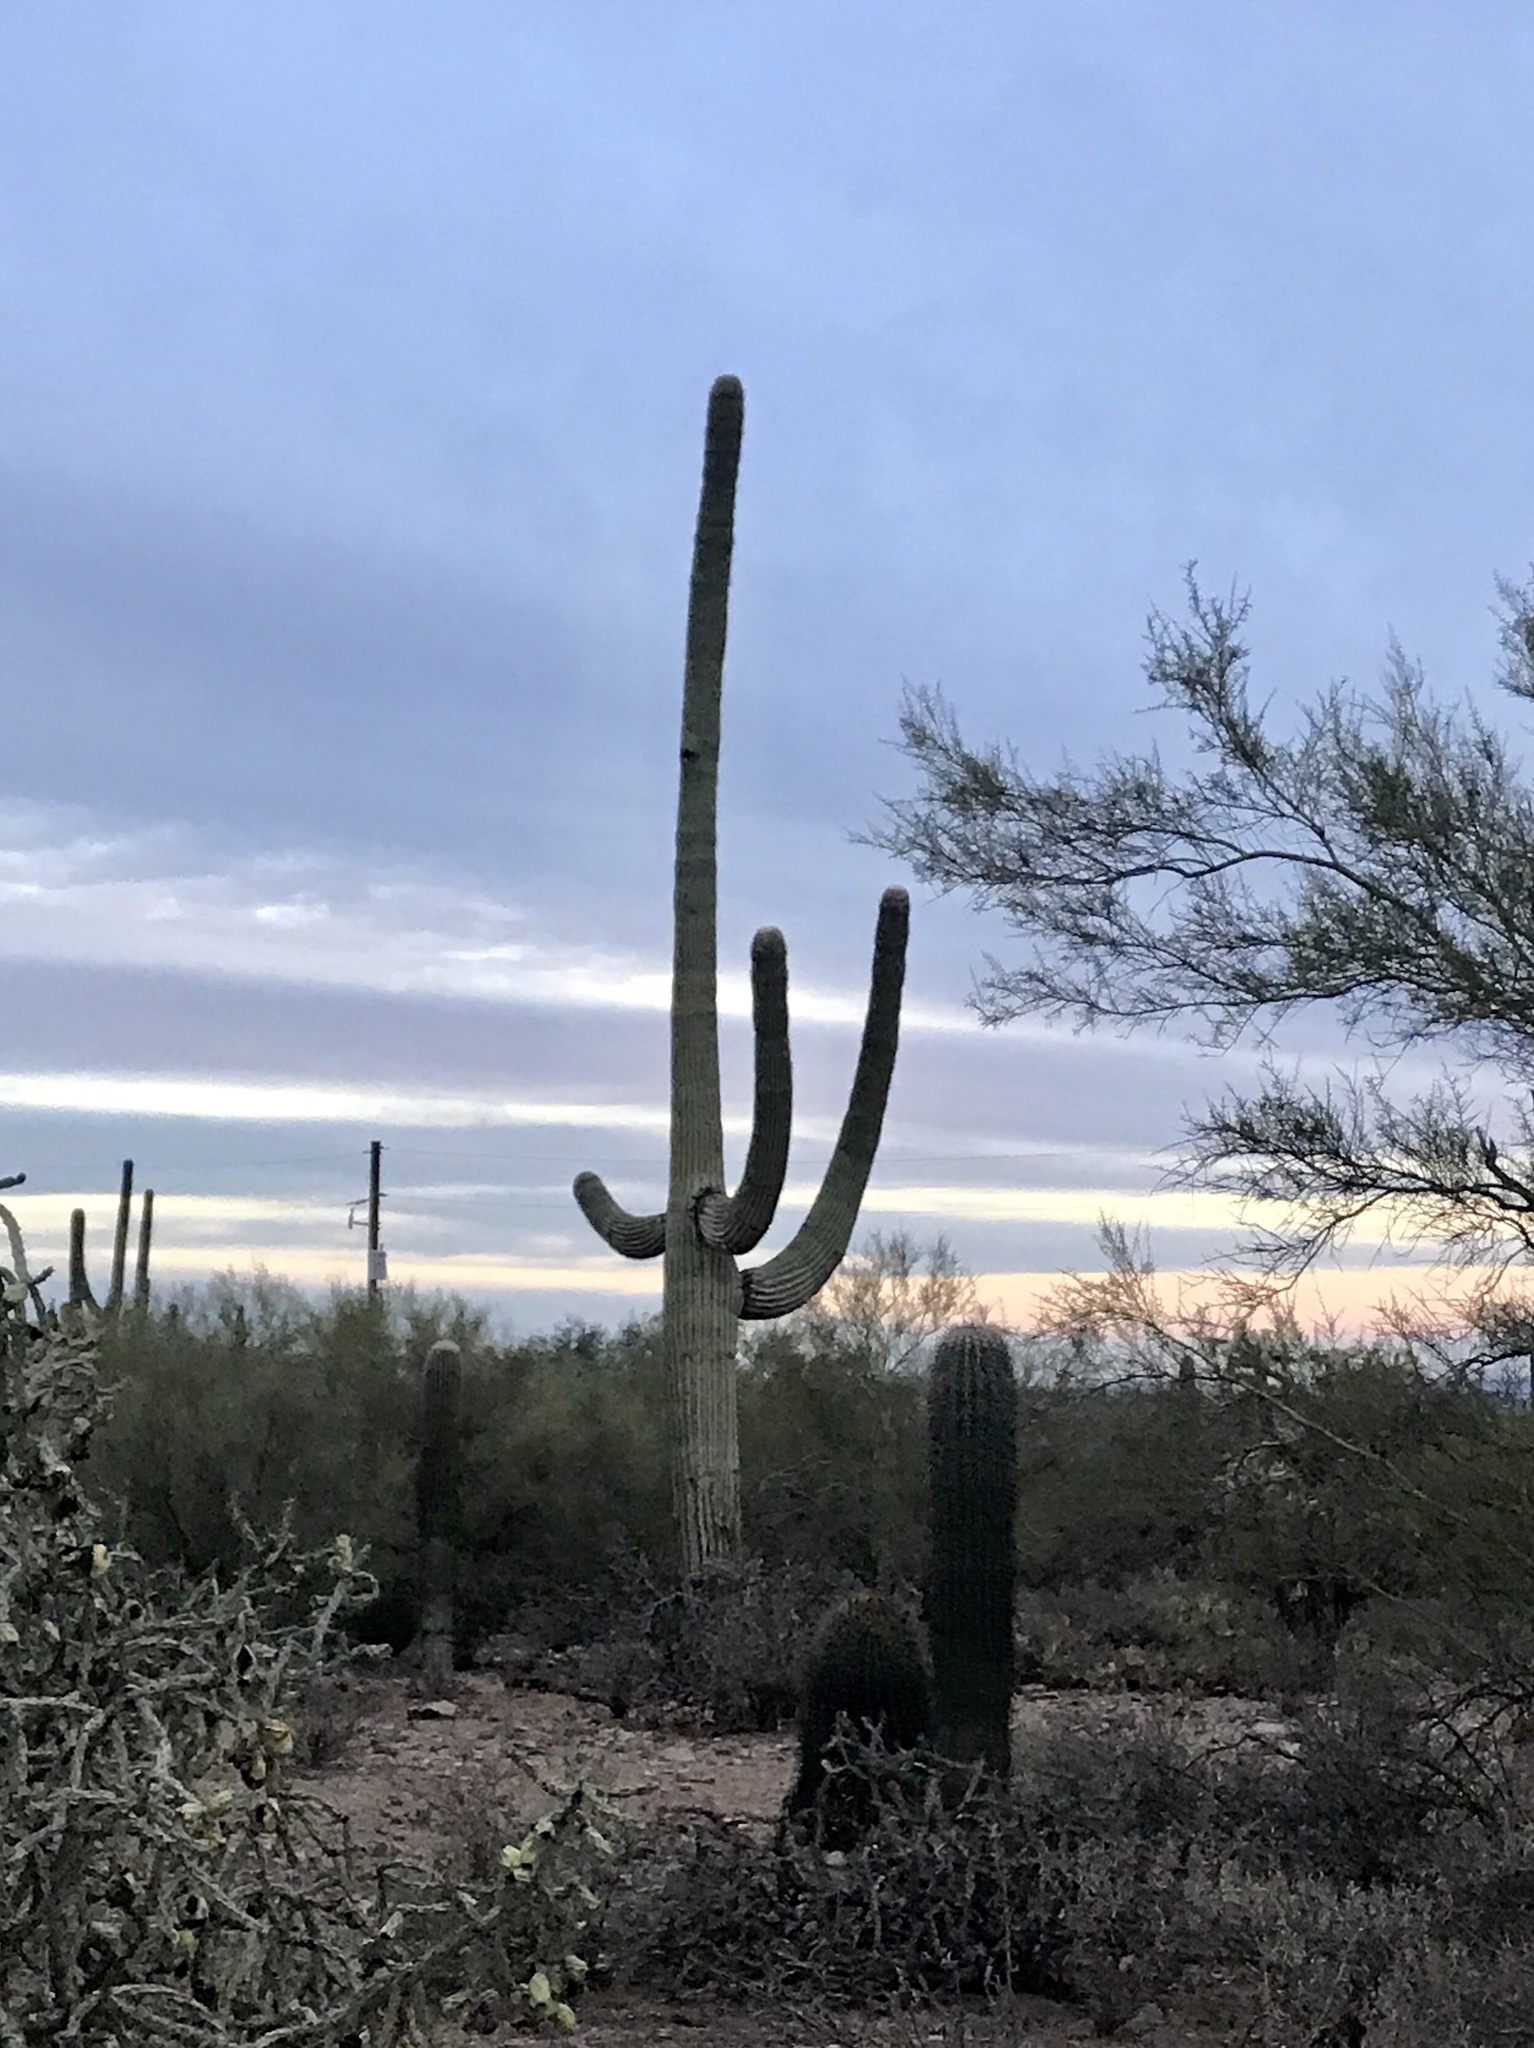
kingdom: Plantae
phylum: Tracheophyta
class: Magnoliopsida
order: Caryophyllales
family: Cactaceae
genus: Carnegiea
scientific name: Carnegiea gigantea
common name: Saguaro
